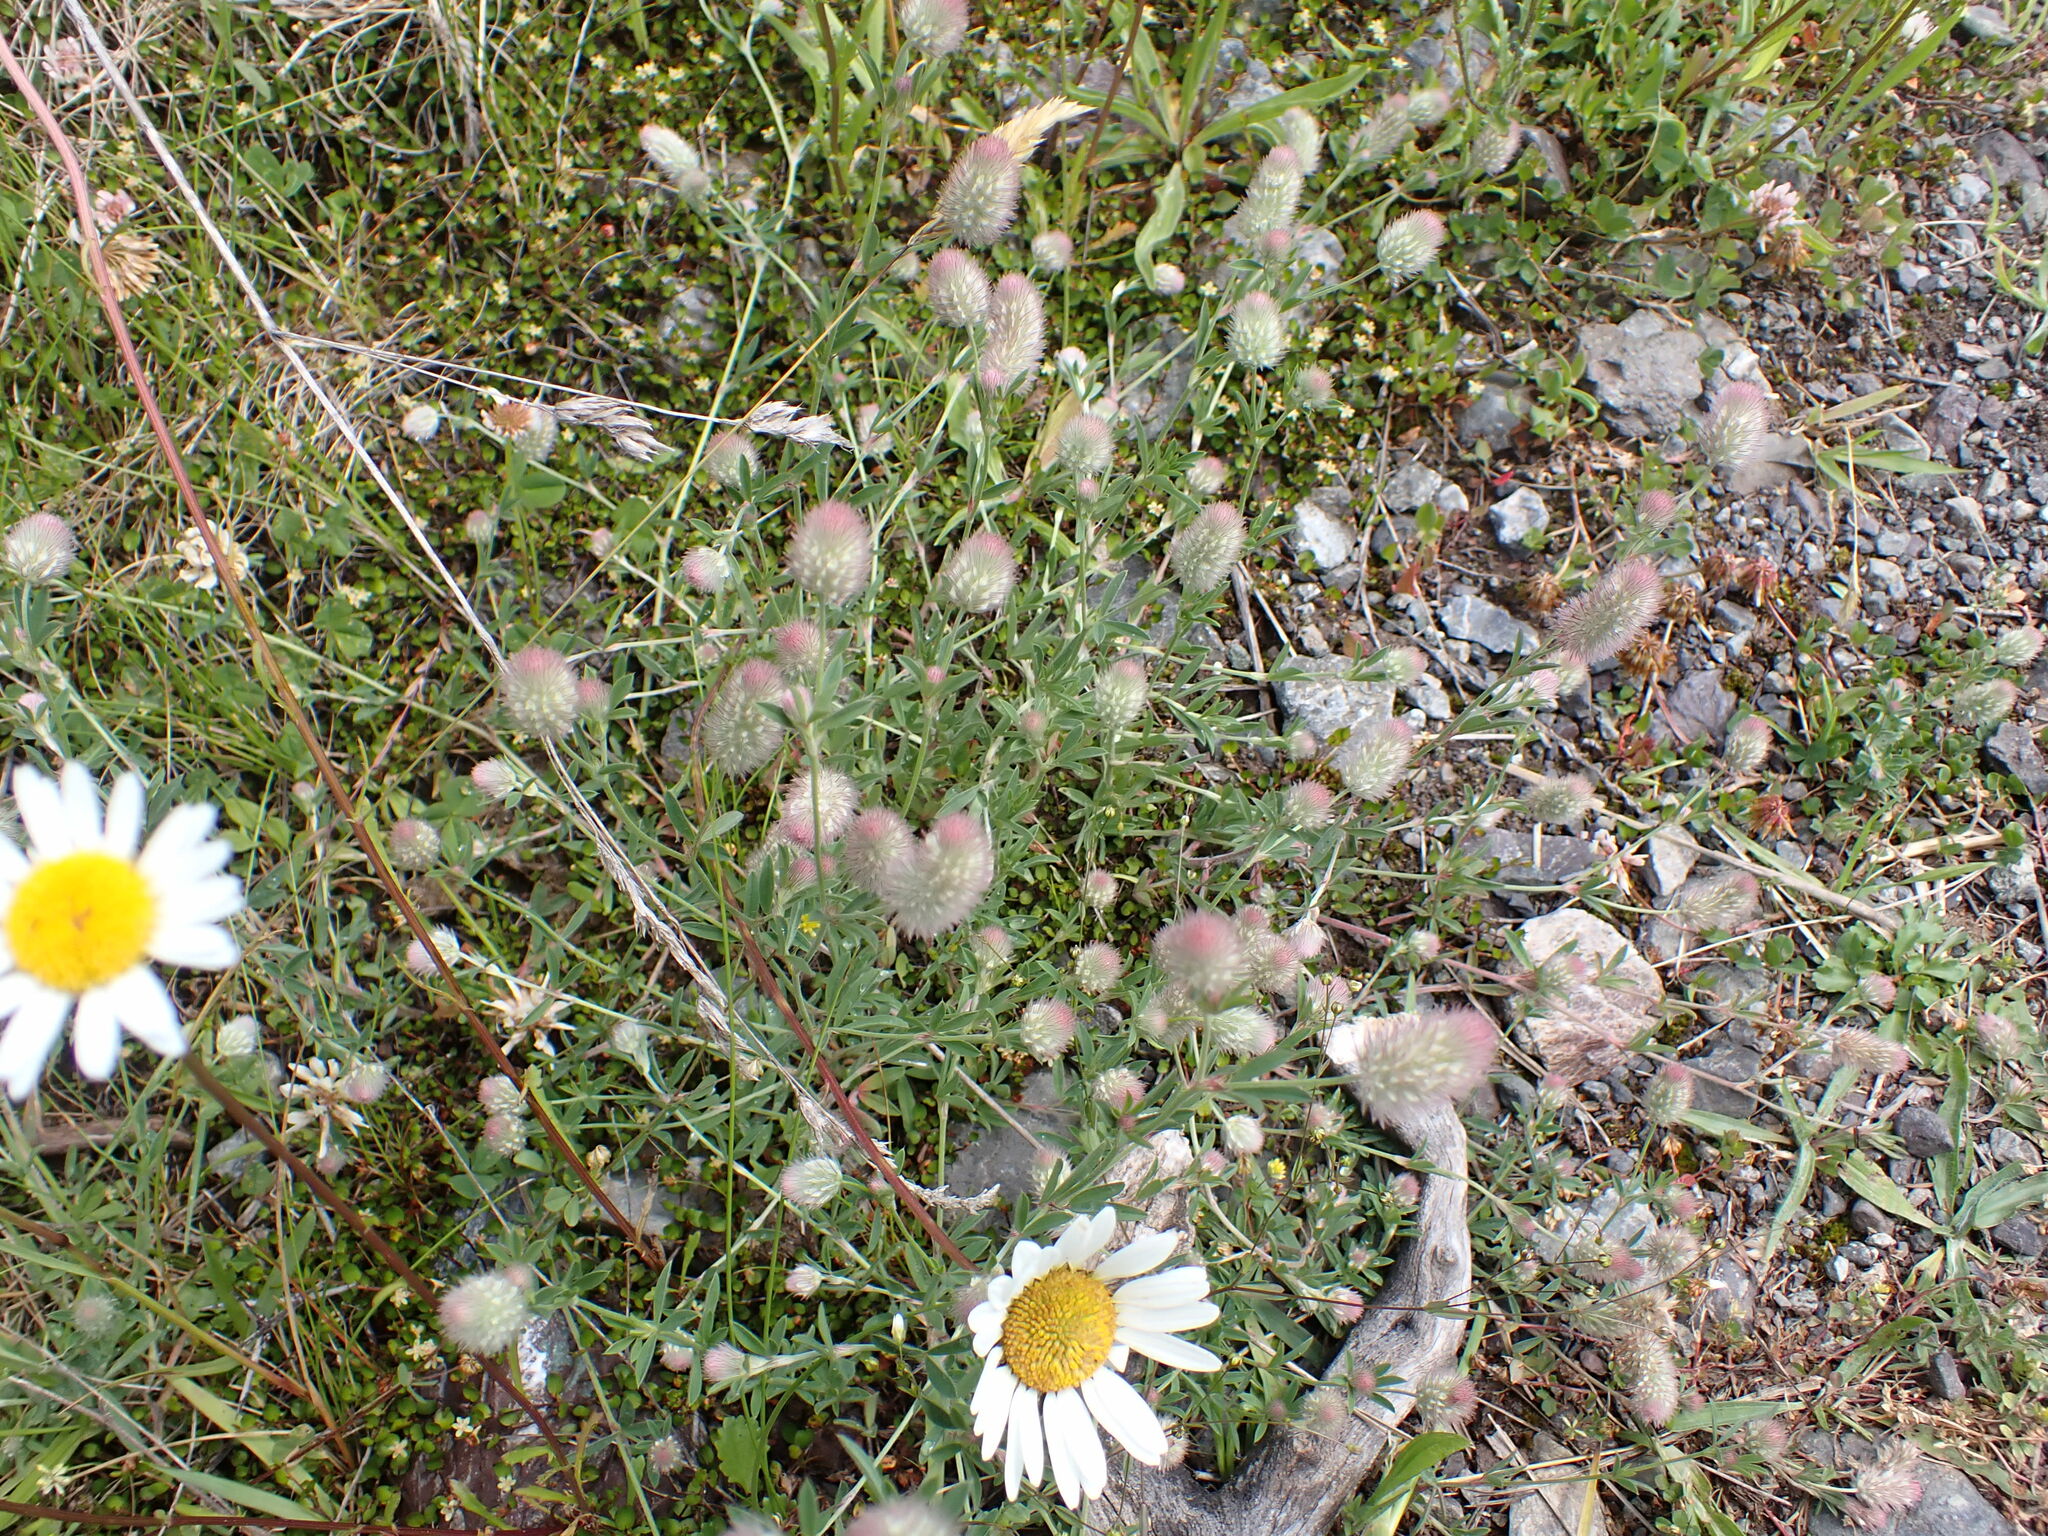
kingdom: Plantae
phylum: Tracheophyta
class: Magnoliopsida
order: Fabales
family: Fabaceae
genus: Trifolium
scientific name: Trifolium arvense
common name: Hare's-foot clover
